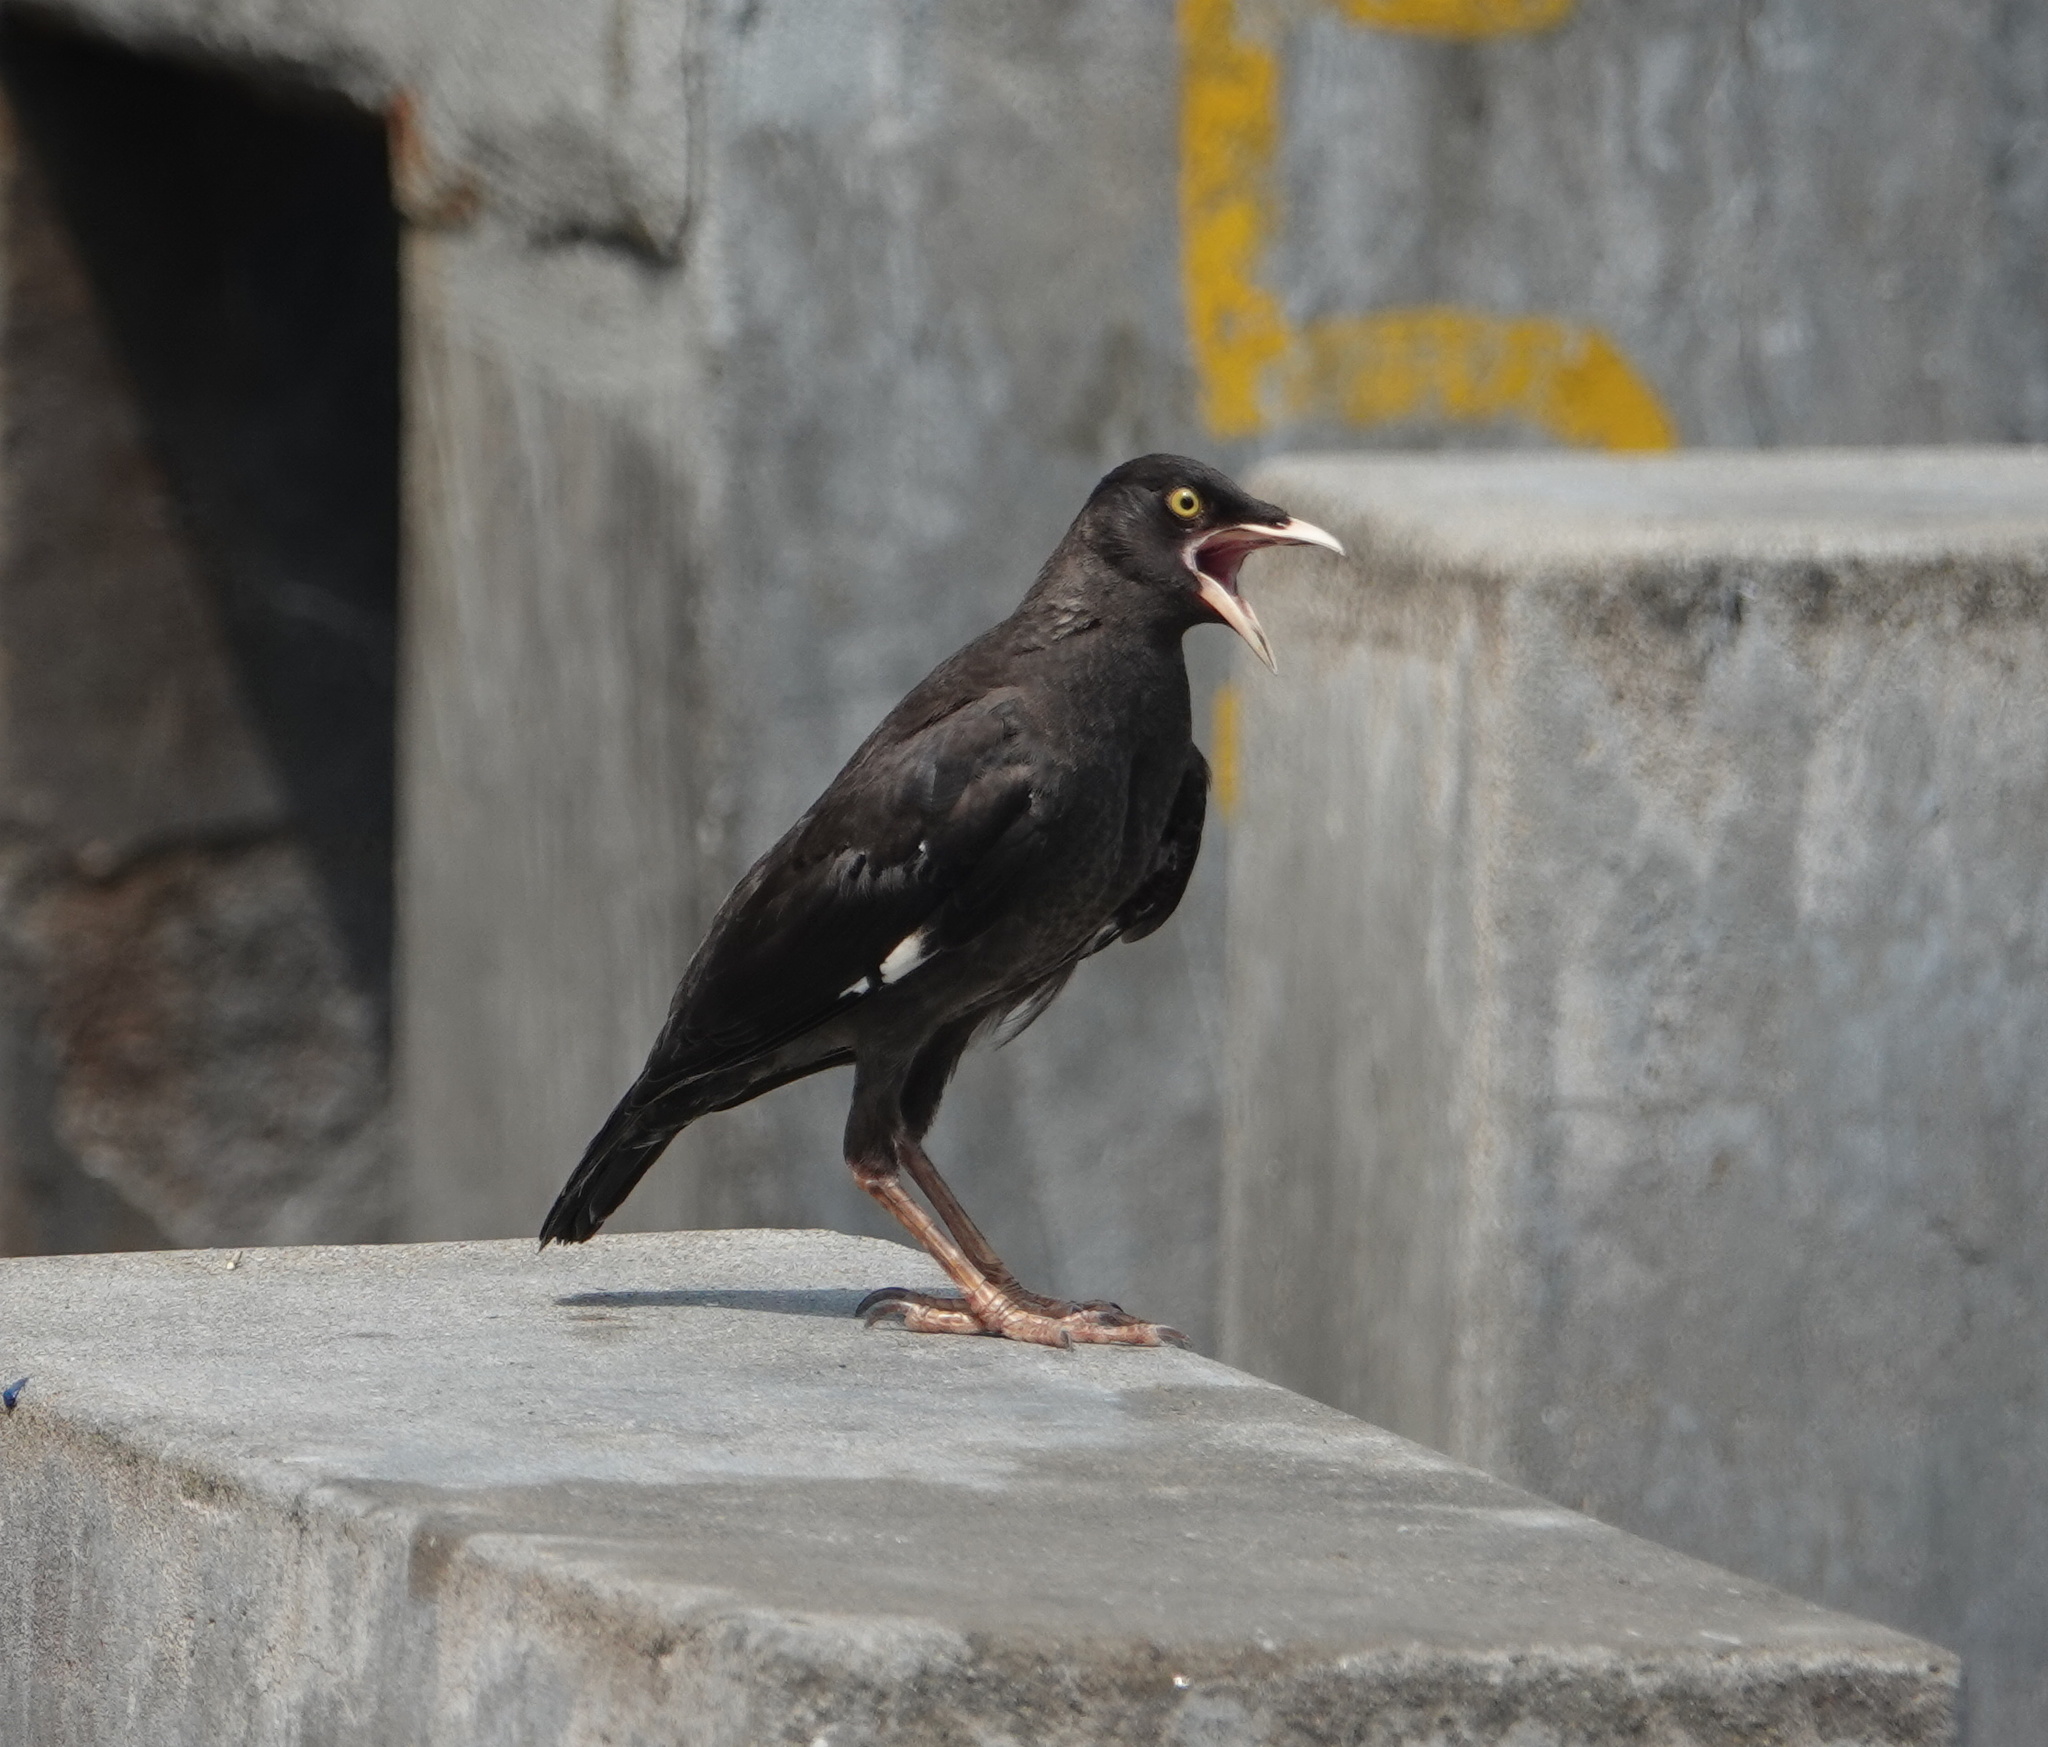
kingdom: Animalia
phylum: Chordata
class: Aves
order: Passeriformes
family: Sturnidae
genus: Acridotheres
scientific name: Acridotheres cristatellus
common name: Crested myna
